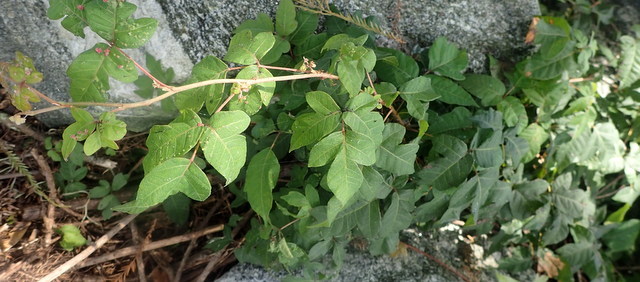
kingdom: Plantae
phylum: Tracheophyta
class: Magnoliopsida
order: Sapindales
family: Anacardiaceae
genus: Toxicodendron
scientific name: Toxicodendron radicans
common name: Poison ivy
